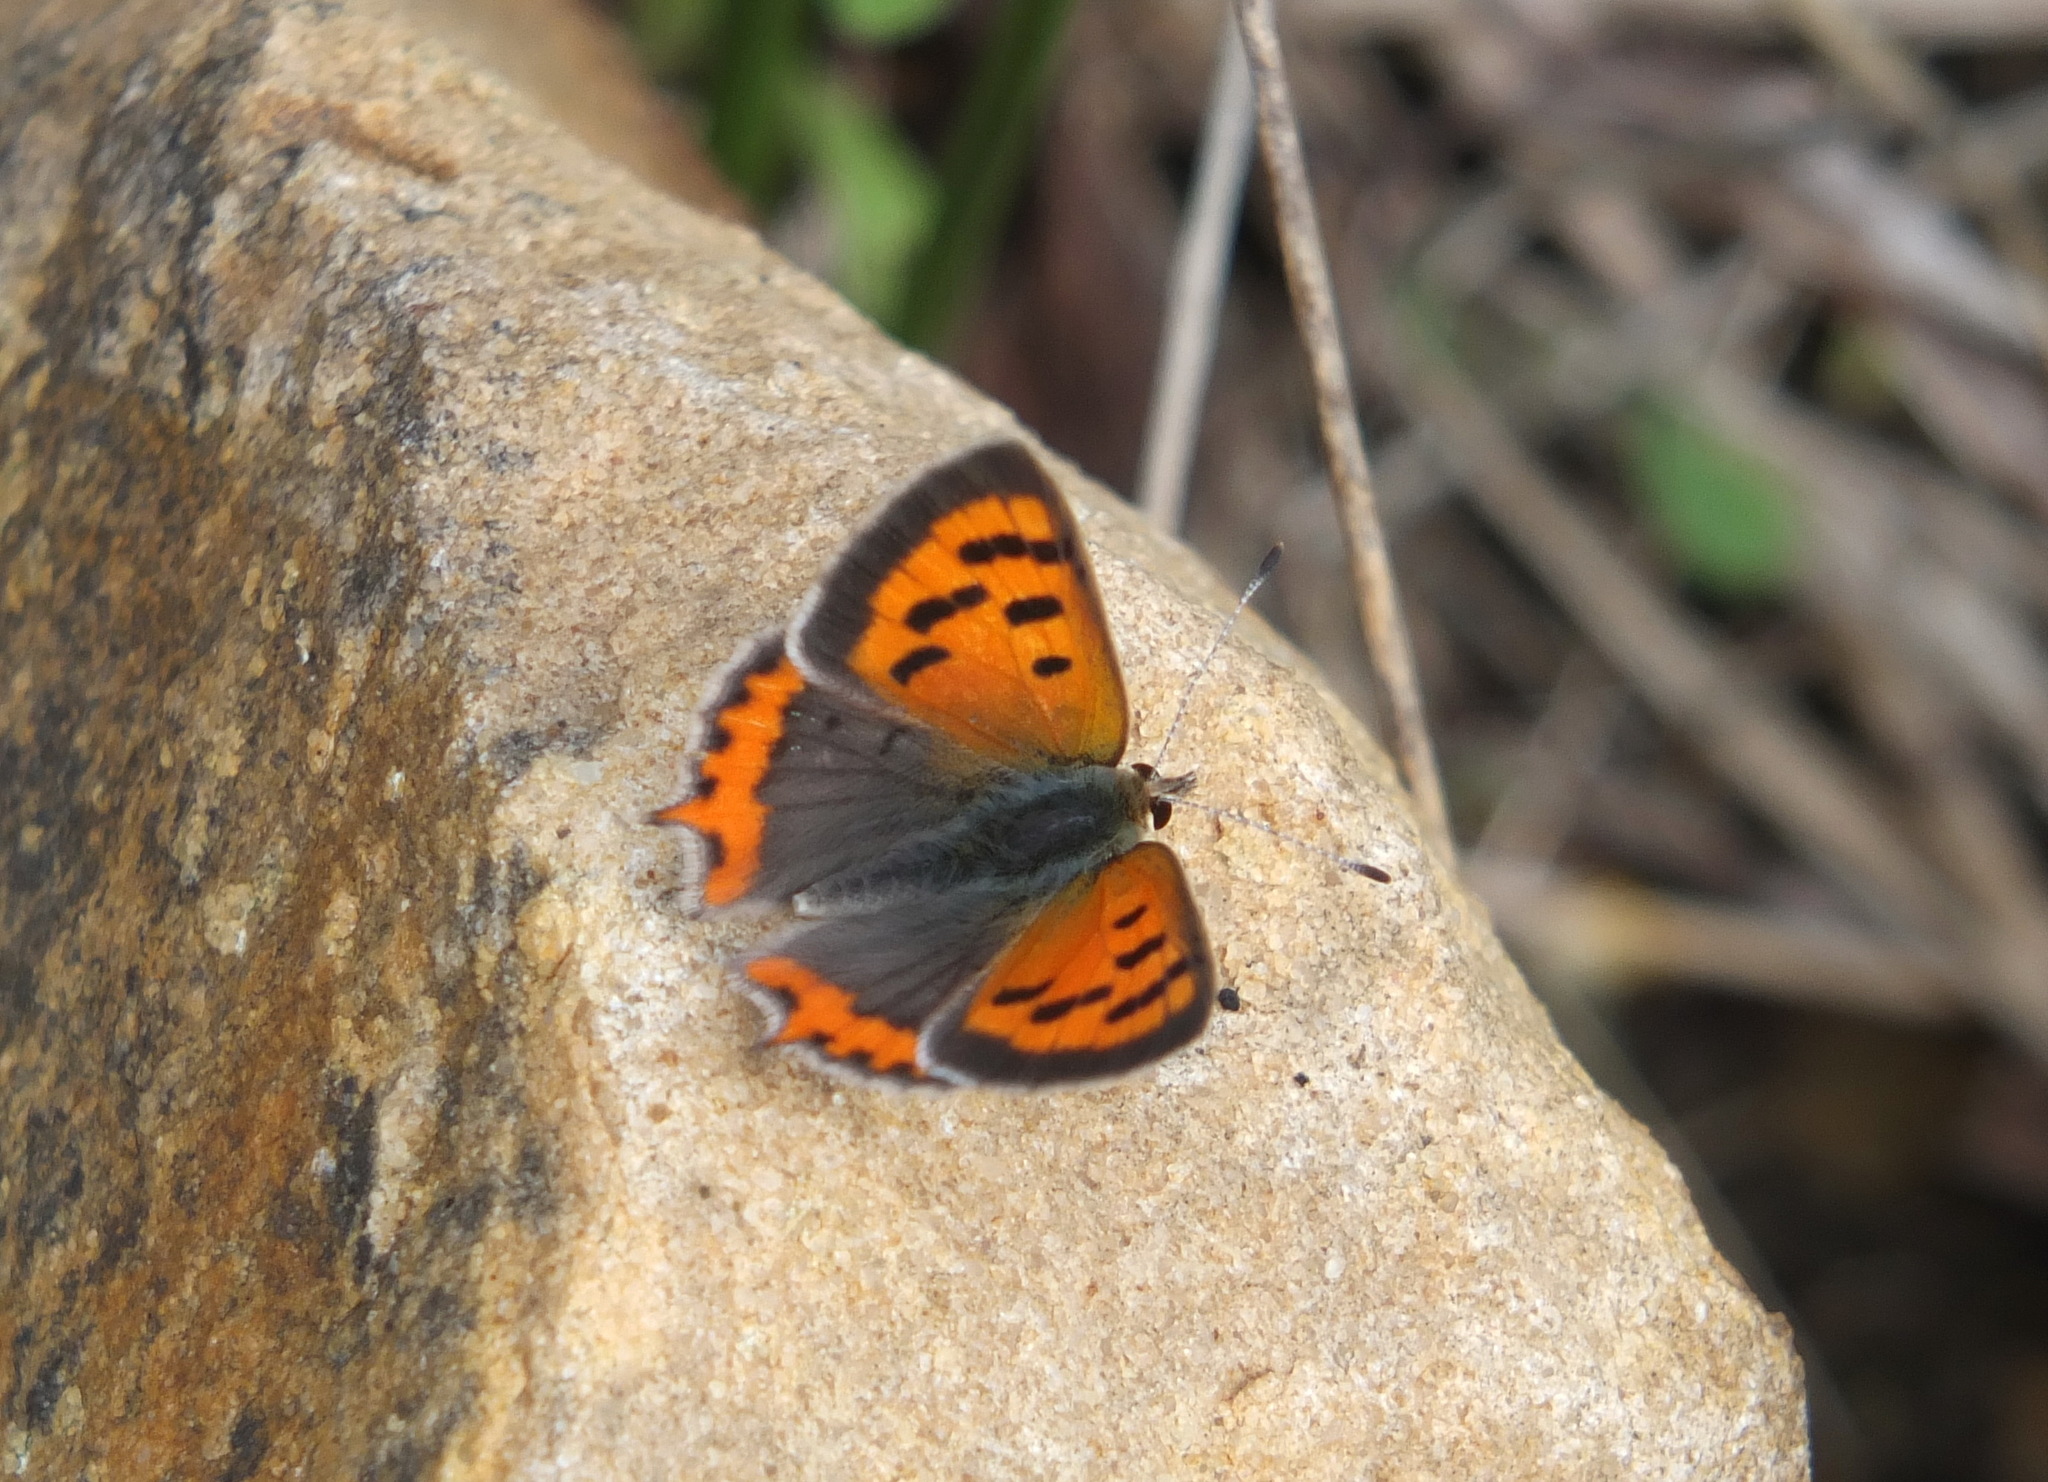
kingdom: Animalia
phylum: Arthropoda
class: Insecta
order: Lepidoptera
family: Lycaenidae
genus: Lycaena
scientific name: Lycaena phlaeas
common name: Small copper
